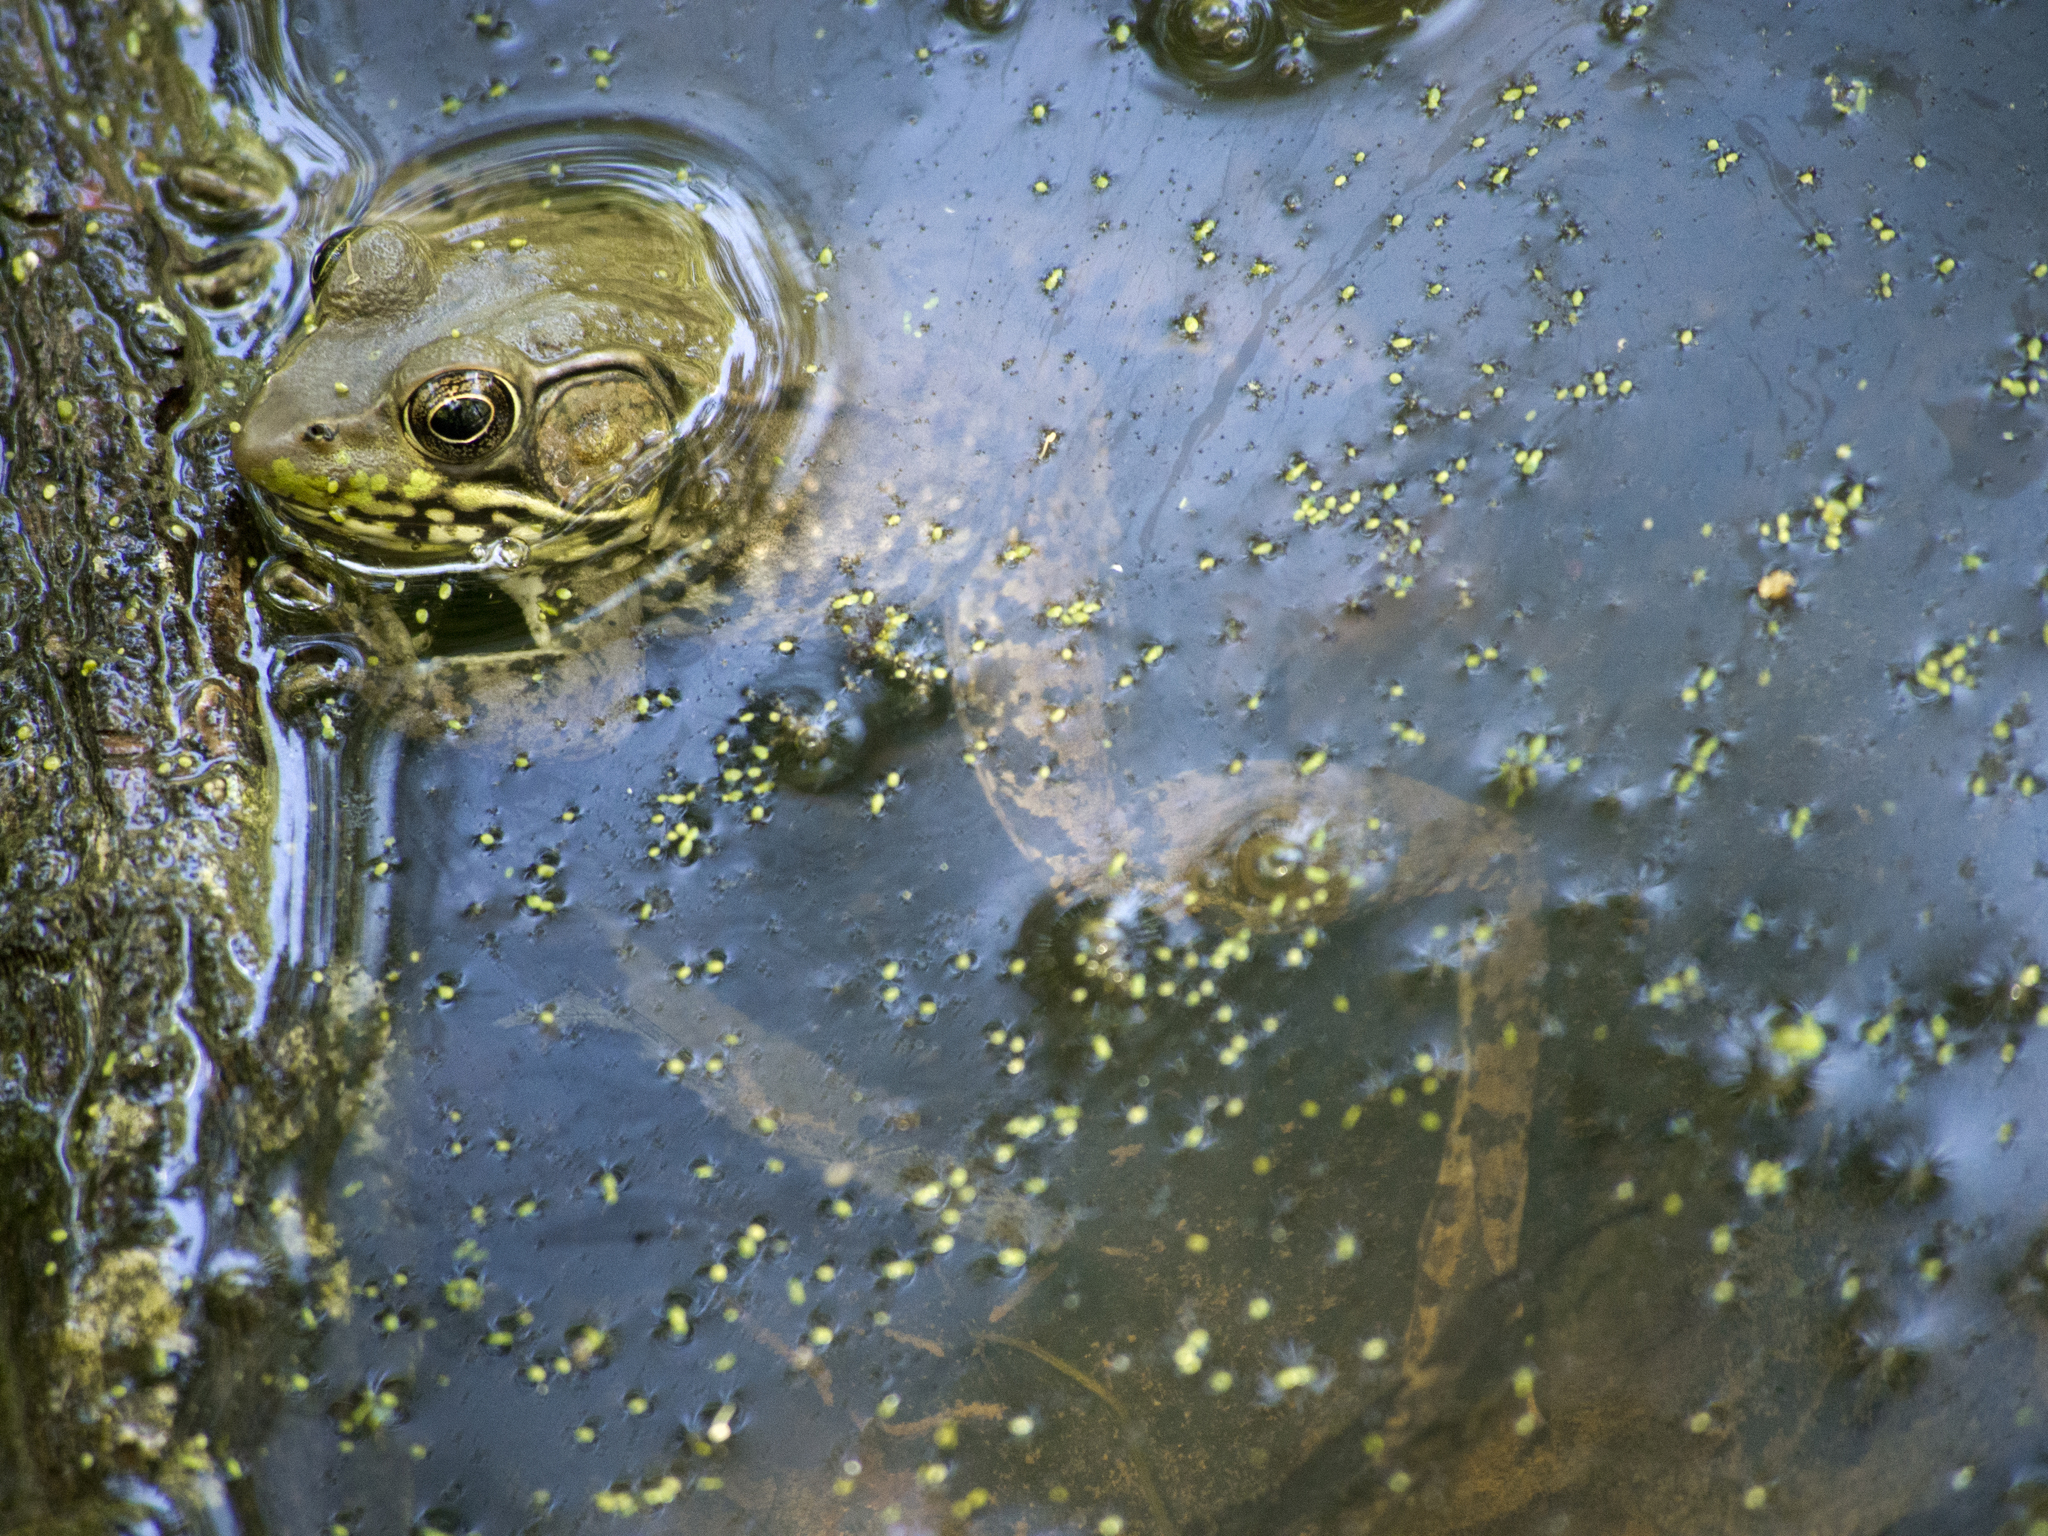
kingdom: Animalia
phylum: Chordata
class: Amphibia
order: Anura
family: Ranidae
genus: Lithobates
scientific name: Lithobates clamitans
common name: Green frog
